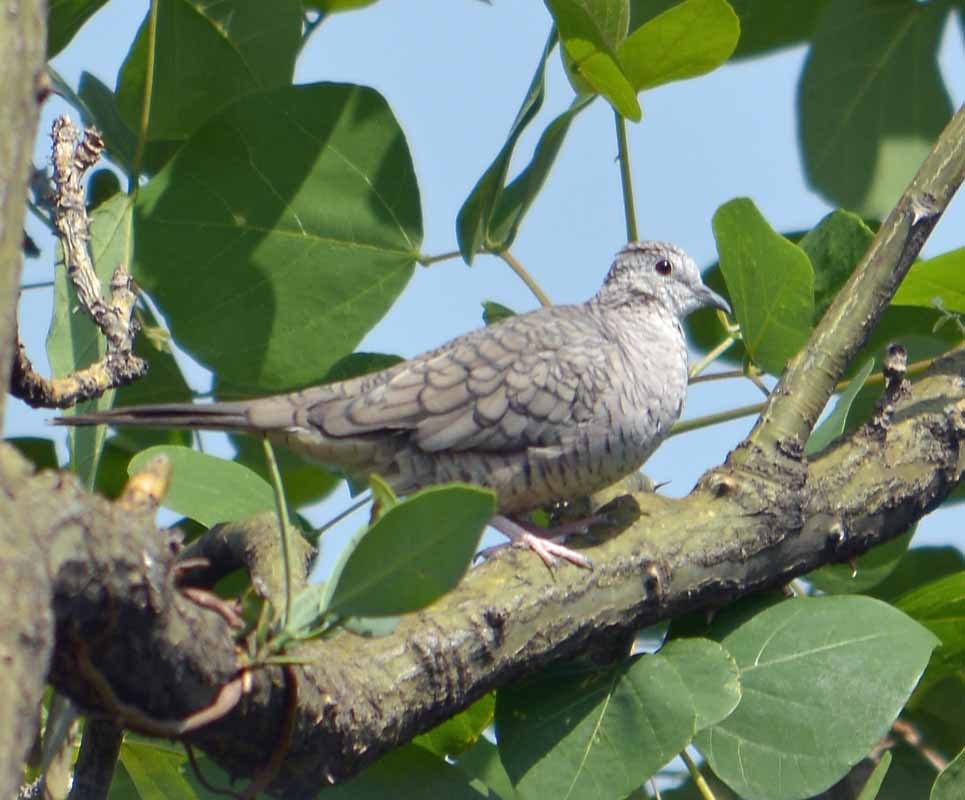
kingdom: Animalia
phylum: Chordata
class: Aves
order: Columbiformes
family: Columbidae
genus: Columbina
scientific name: Columbina inca
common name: Inca dove
